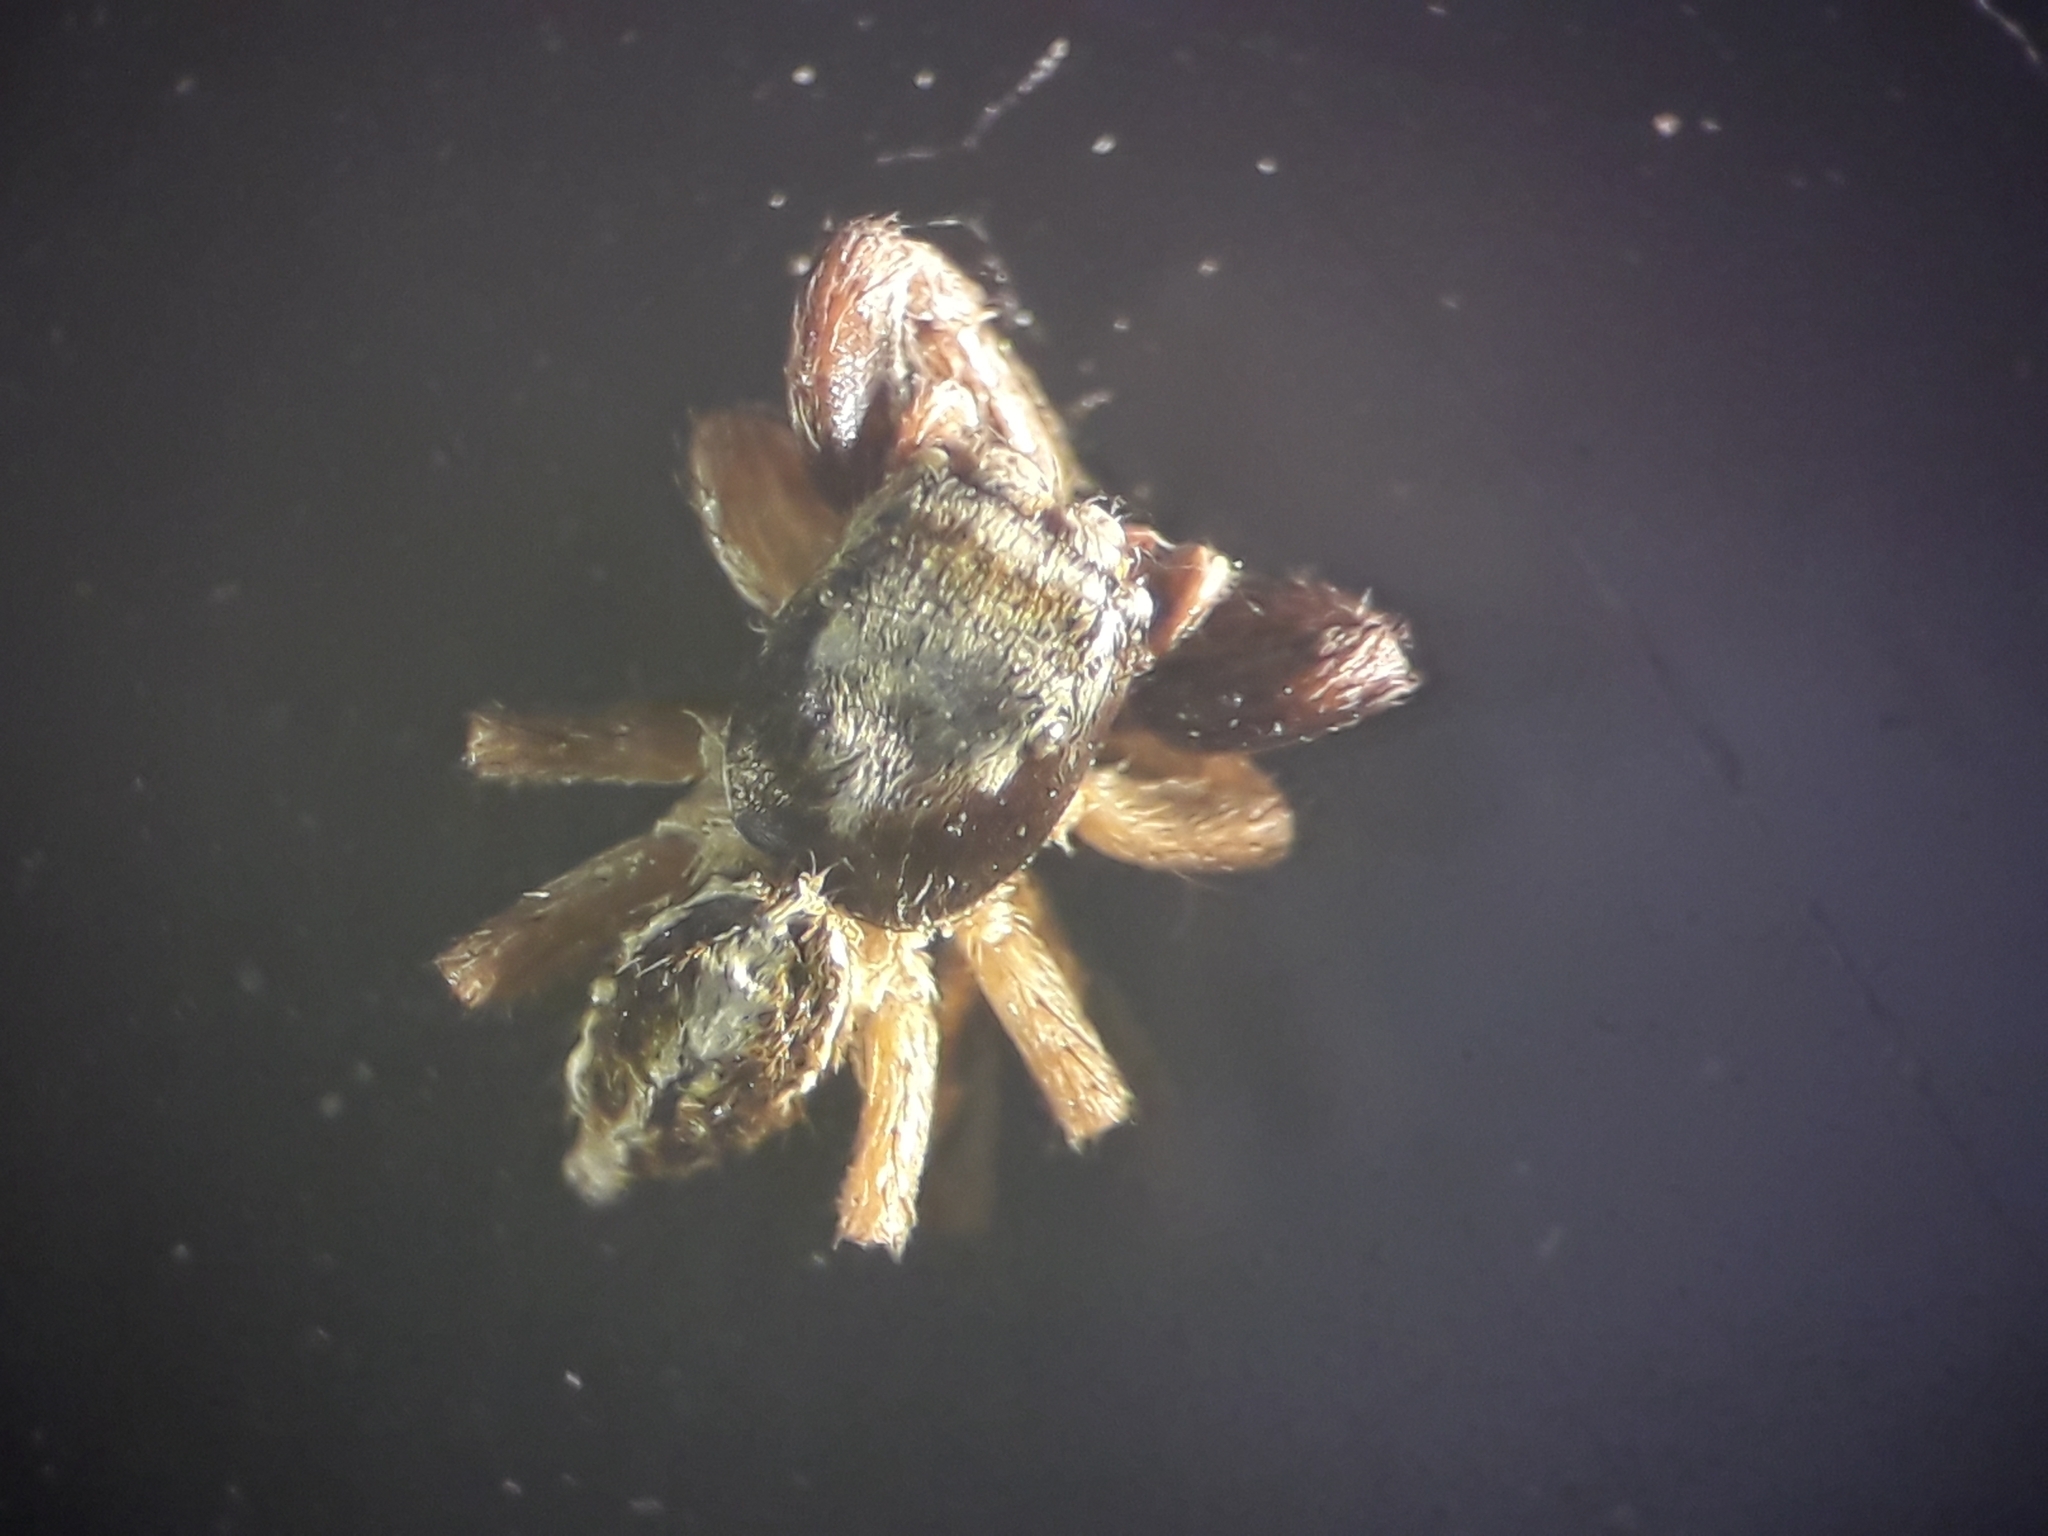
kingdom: Animalia
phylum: Arthropoda
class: Arachnida
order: Araneae
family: Salticidae
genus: Icius
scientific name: Icius subinermis
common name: Jumping spider
